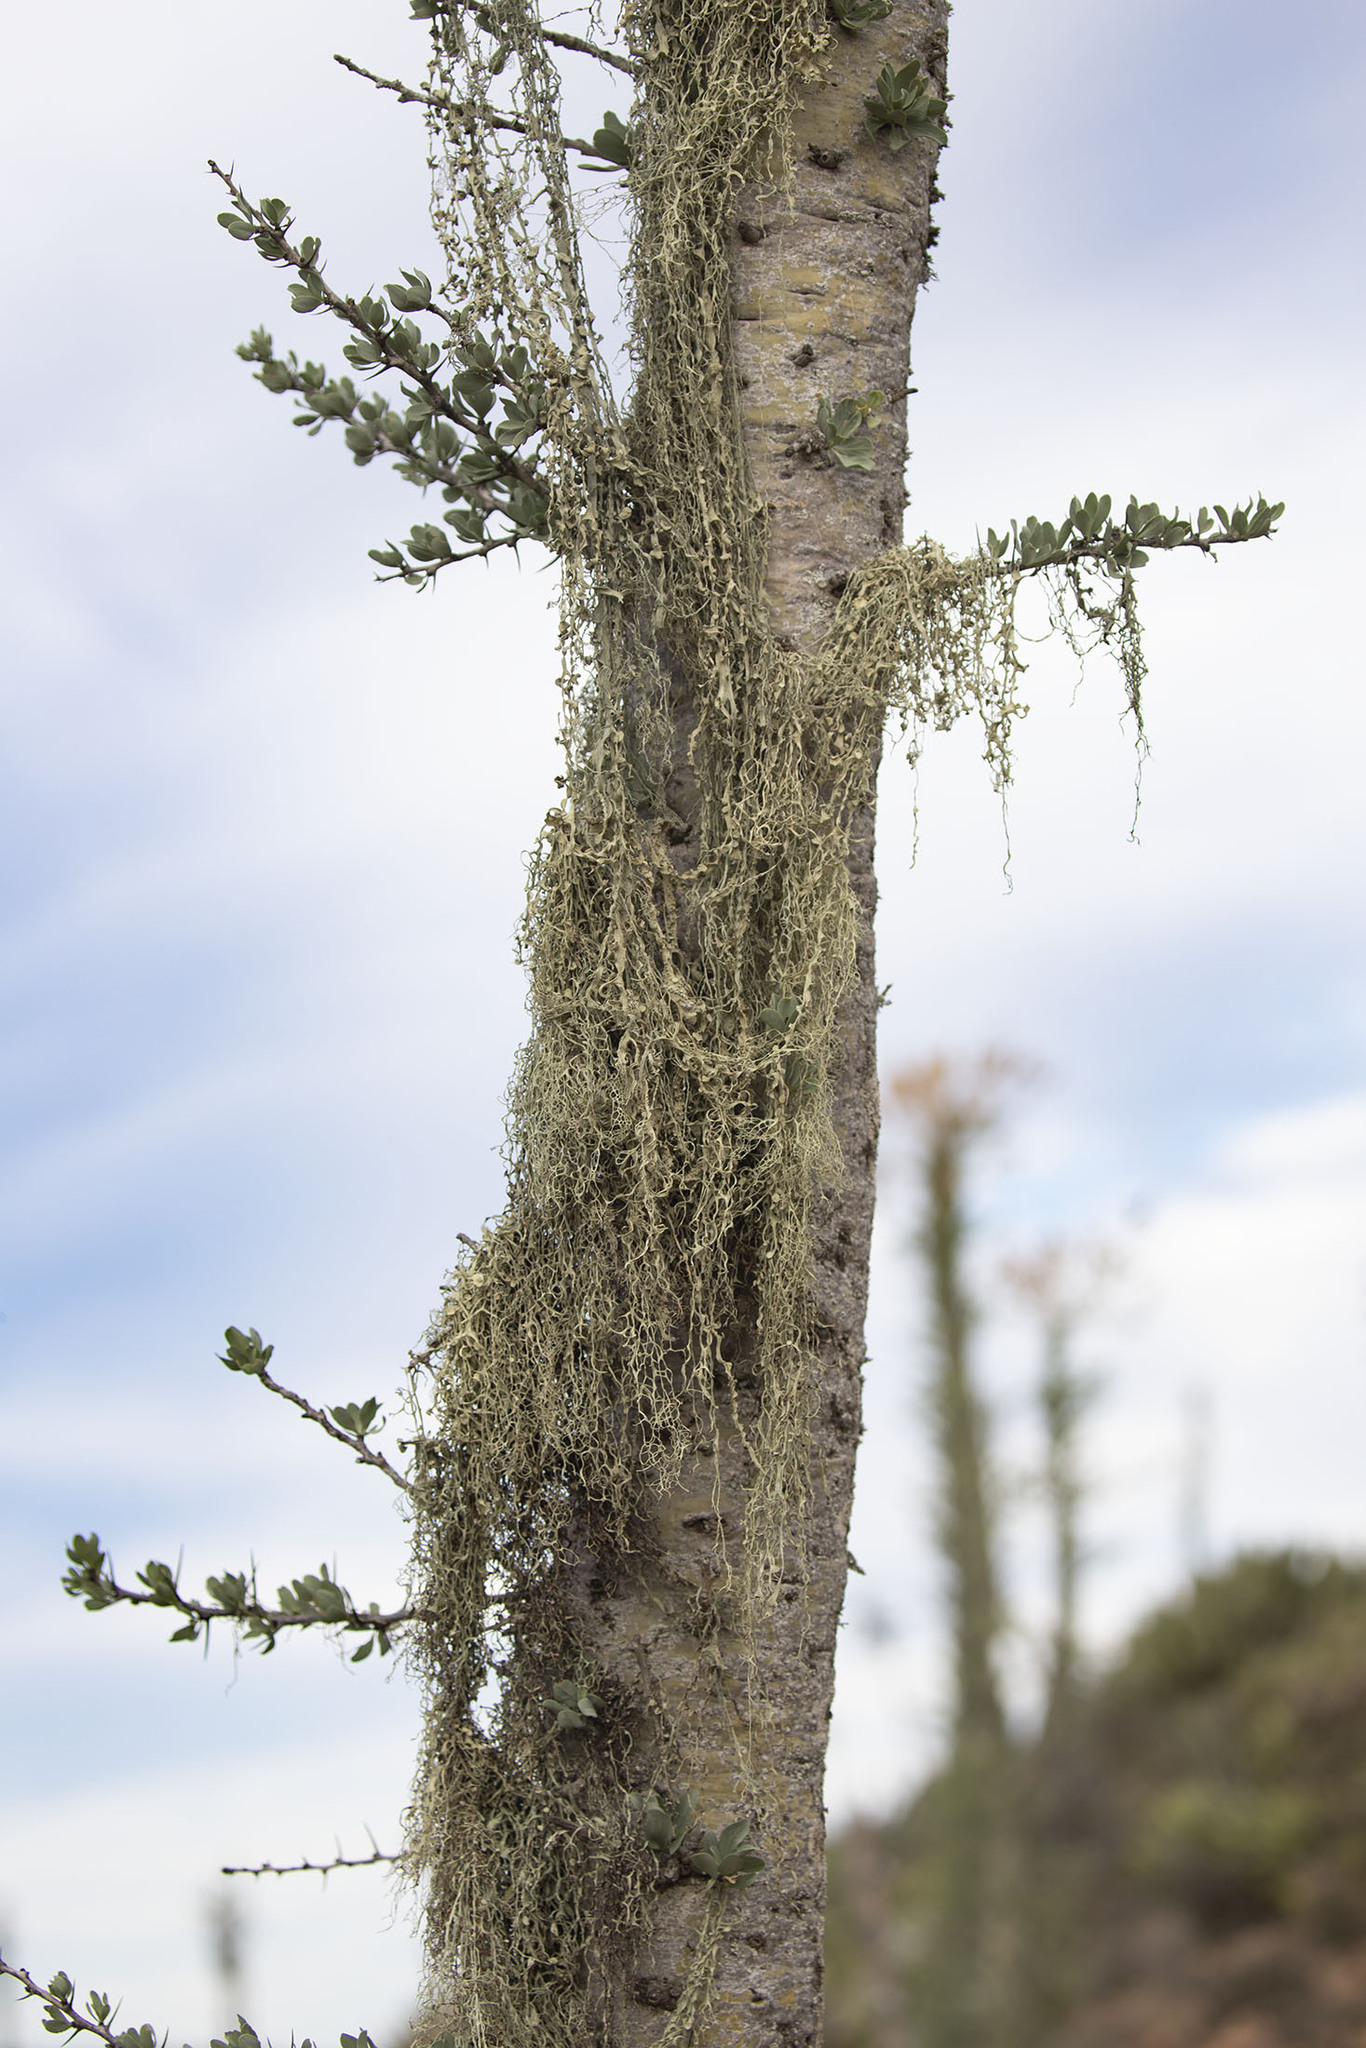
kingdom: Fungi
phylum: Ascomycota
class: Lecanoromycetes
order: Lecanorales
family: Ramalinaceae
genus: Ramalina
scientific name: Ramalina menziesii
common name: Lace lichen
